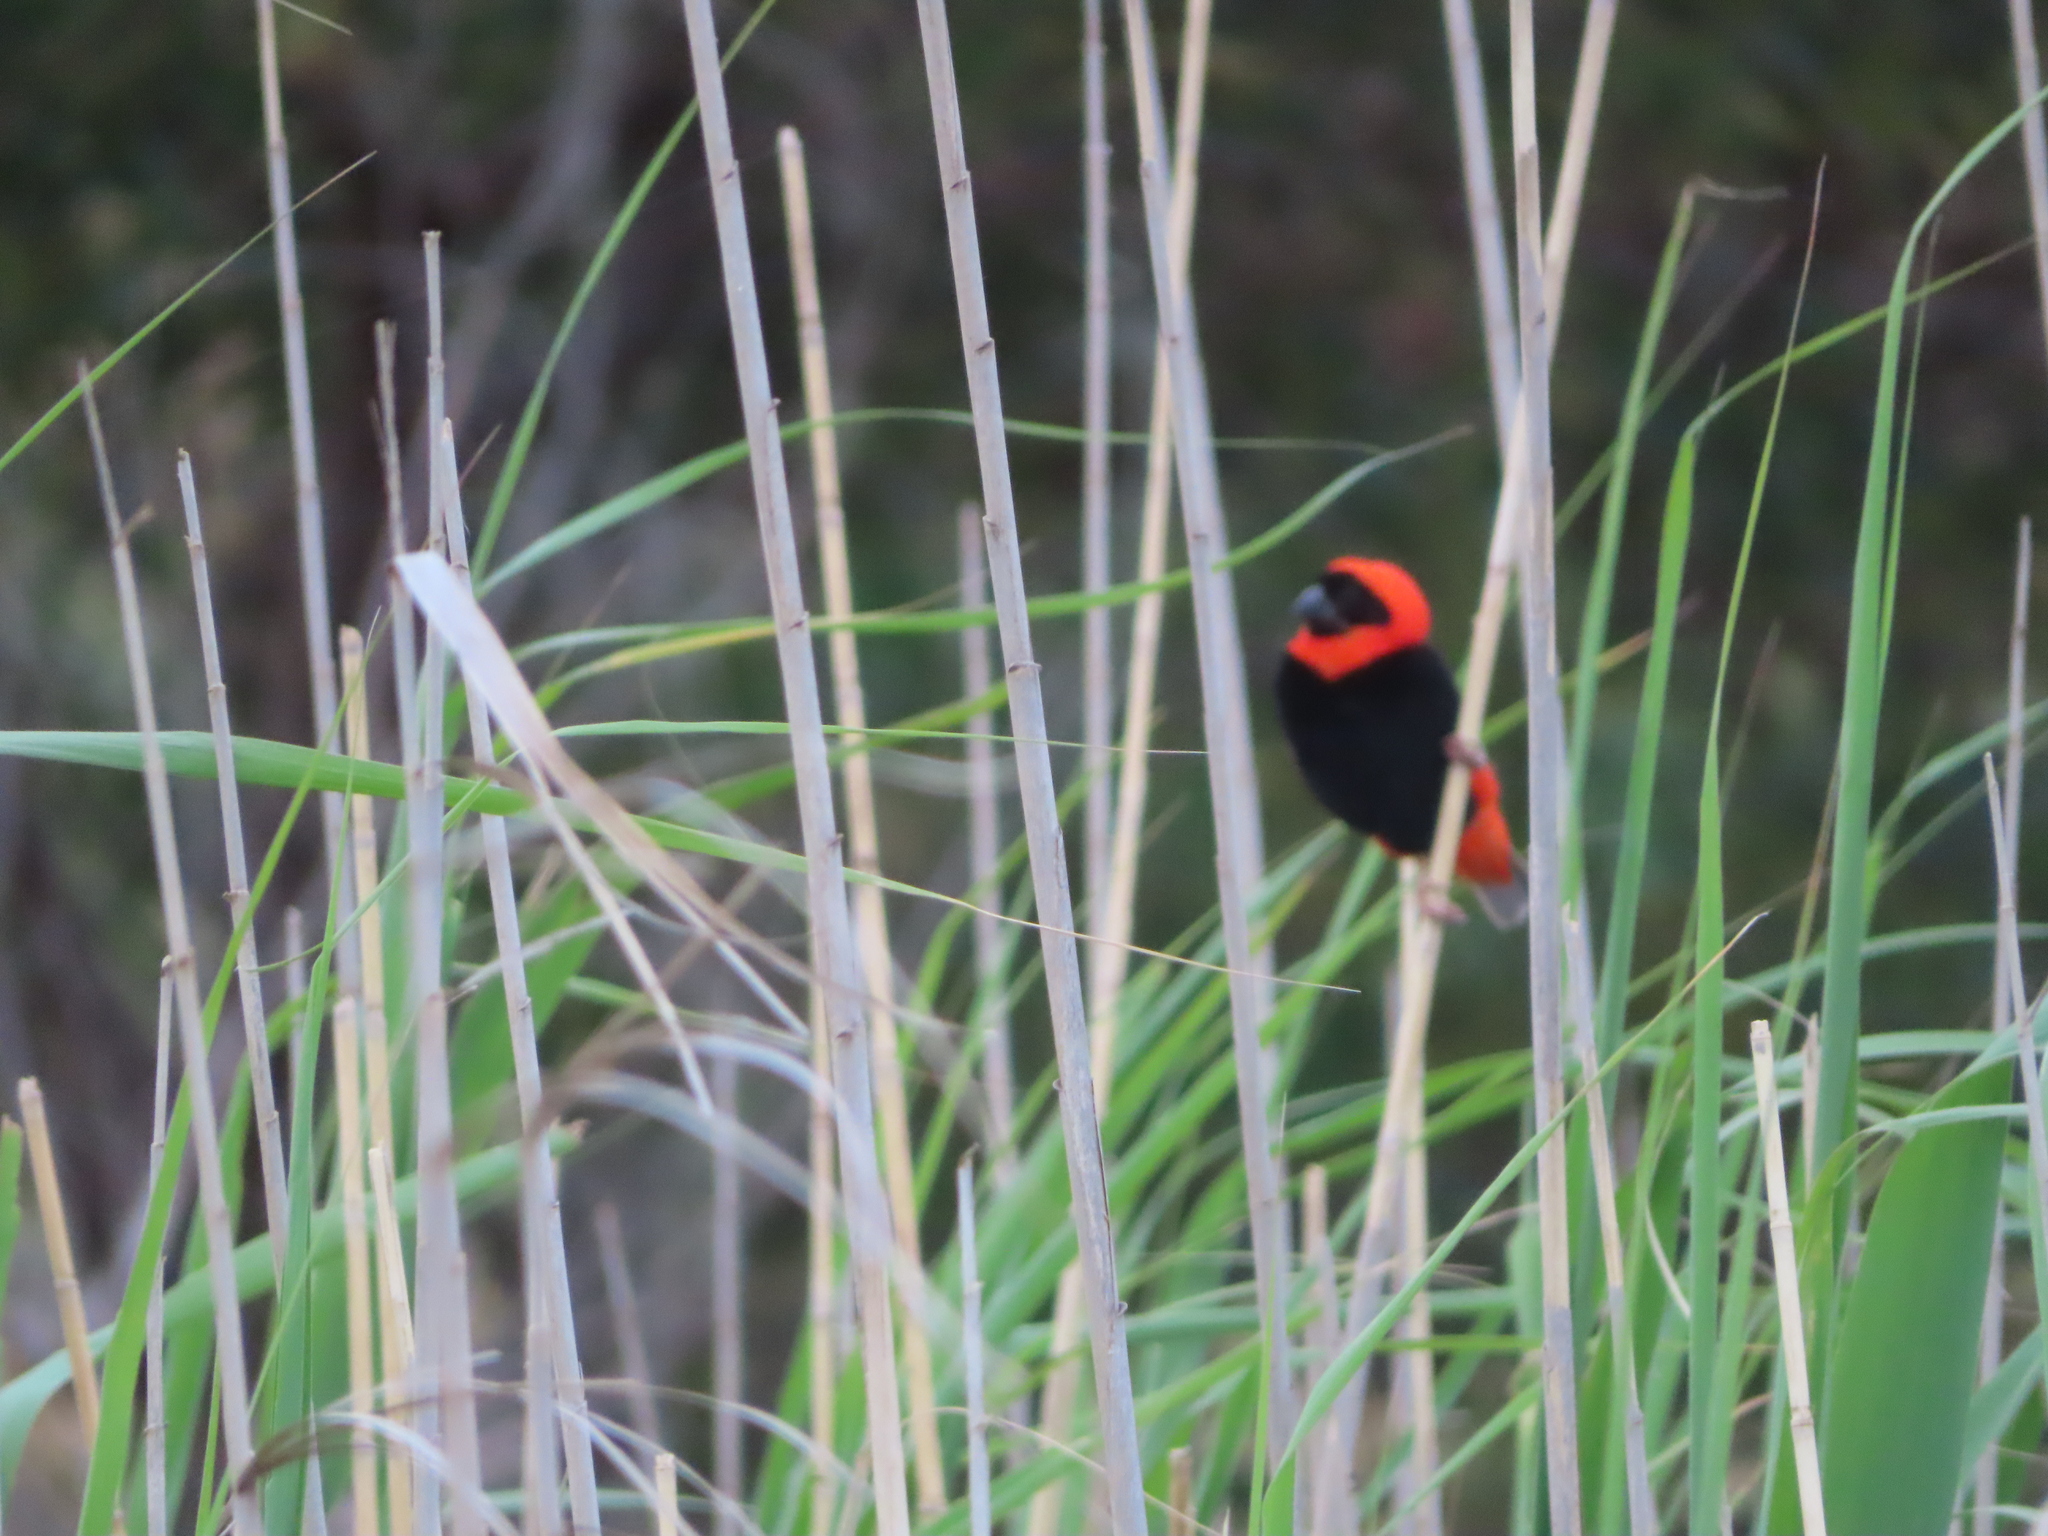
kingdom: Animalia
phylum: Chordata
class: Aves
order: Passeriformes
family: Ploceidae
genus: Euplectes
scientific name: Euplectes orix
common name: Southern red bishop
